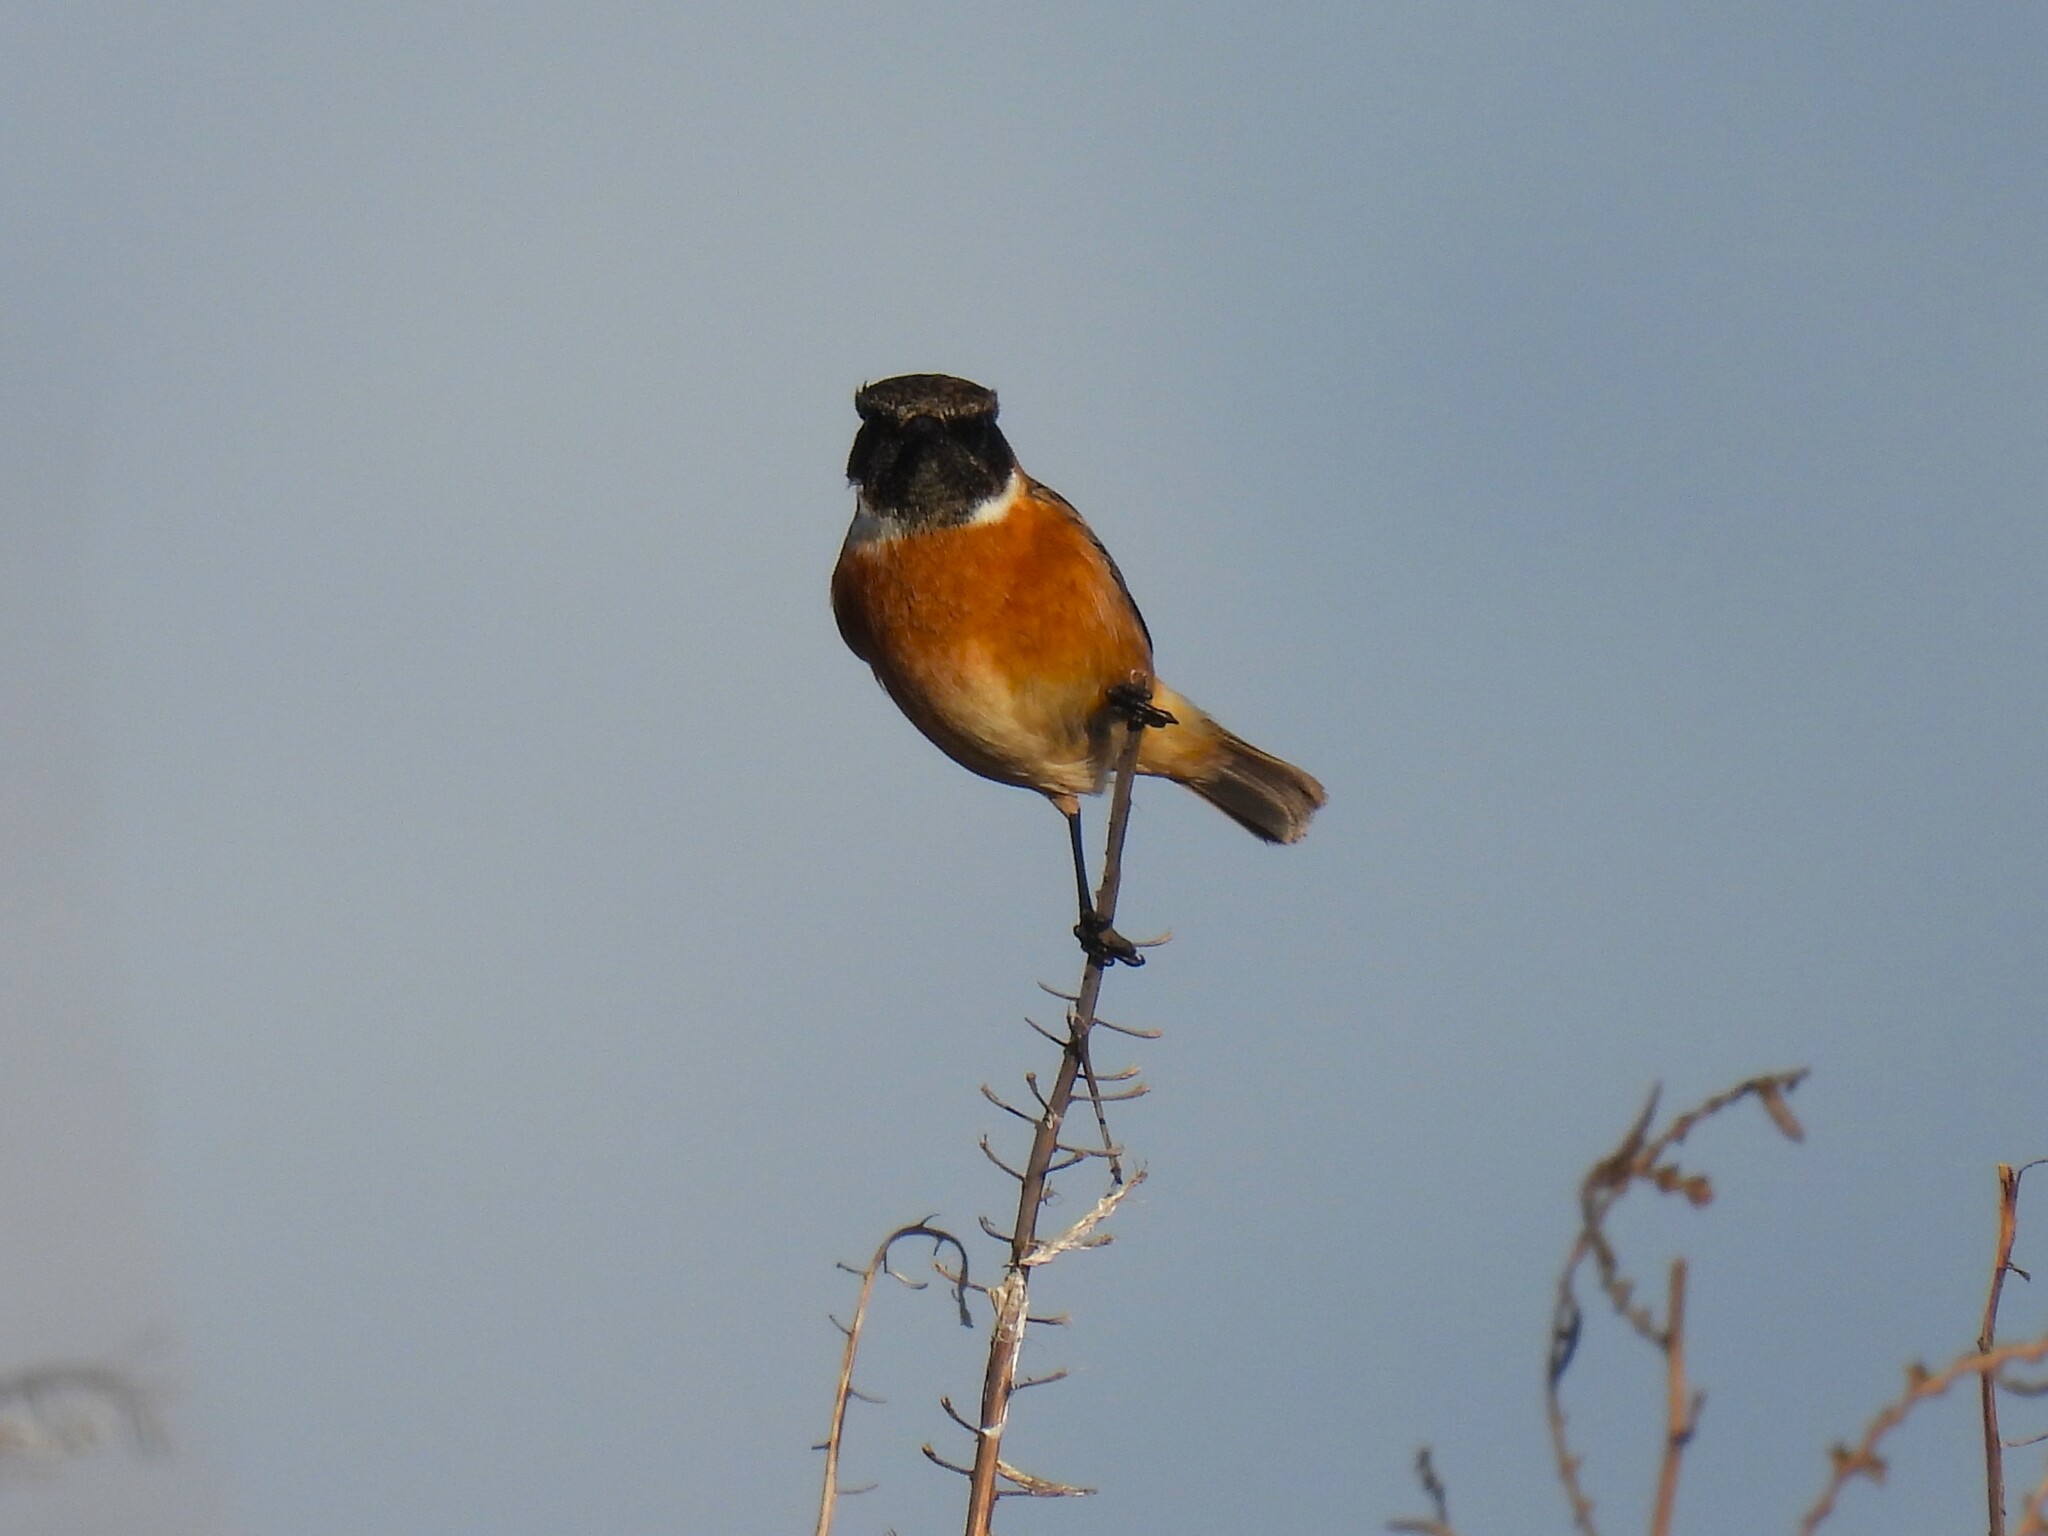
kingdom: Animalia
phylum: Chordata
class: Aves
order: Passeriformes
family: Muscicapidae
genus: Saxicola
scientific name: Saxicola rubicola
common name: European stonechat
